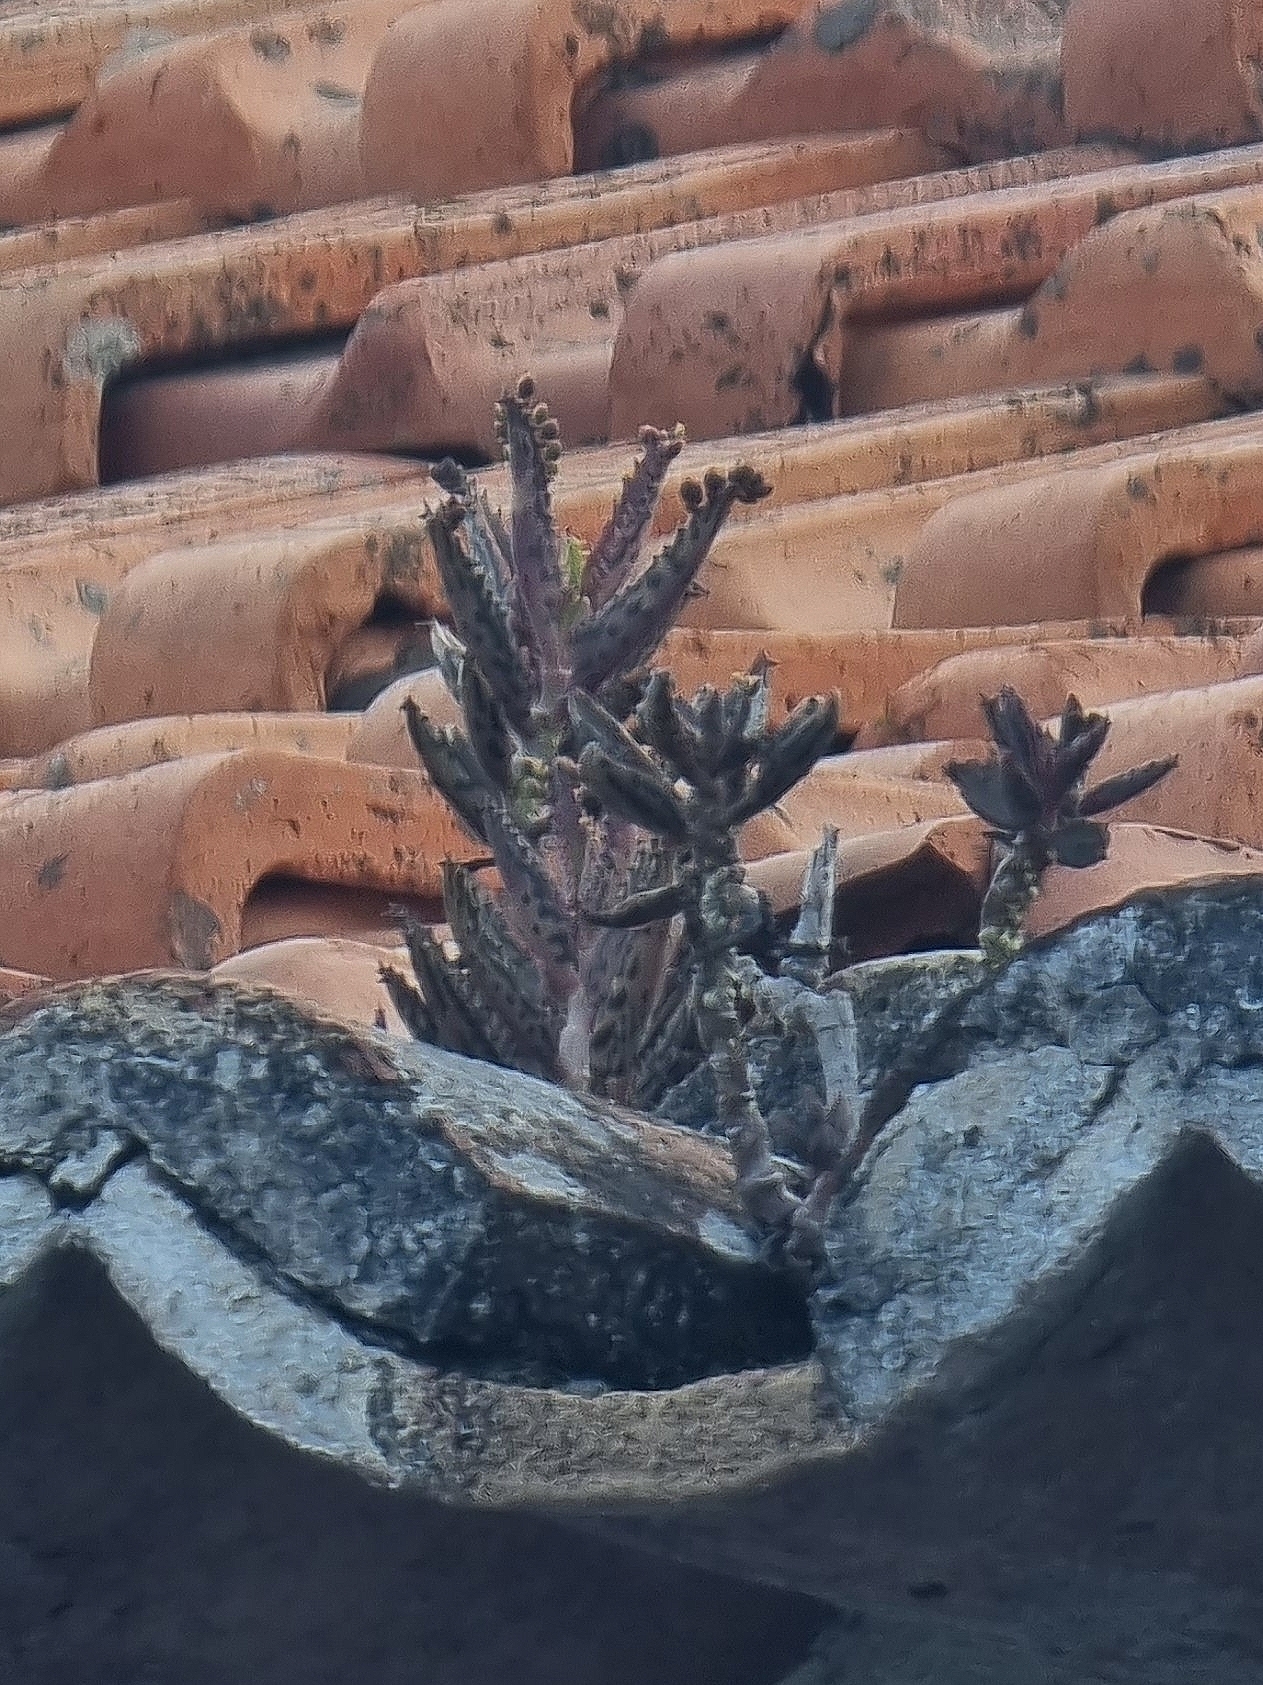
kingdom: Plantae
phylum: Tracheophyta
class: Magnoliopsida
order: Saxifragales
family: Crassulaceae
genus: Kalanchoe
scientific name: Kalanchoe houghtonii
